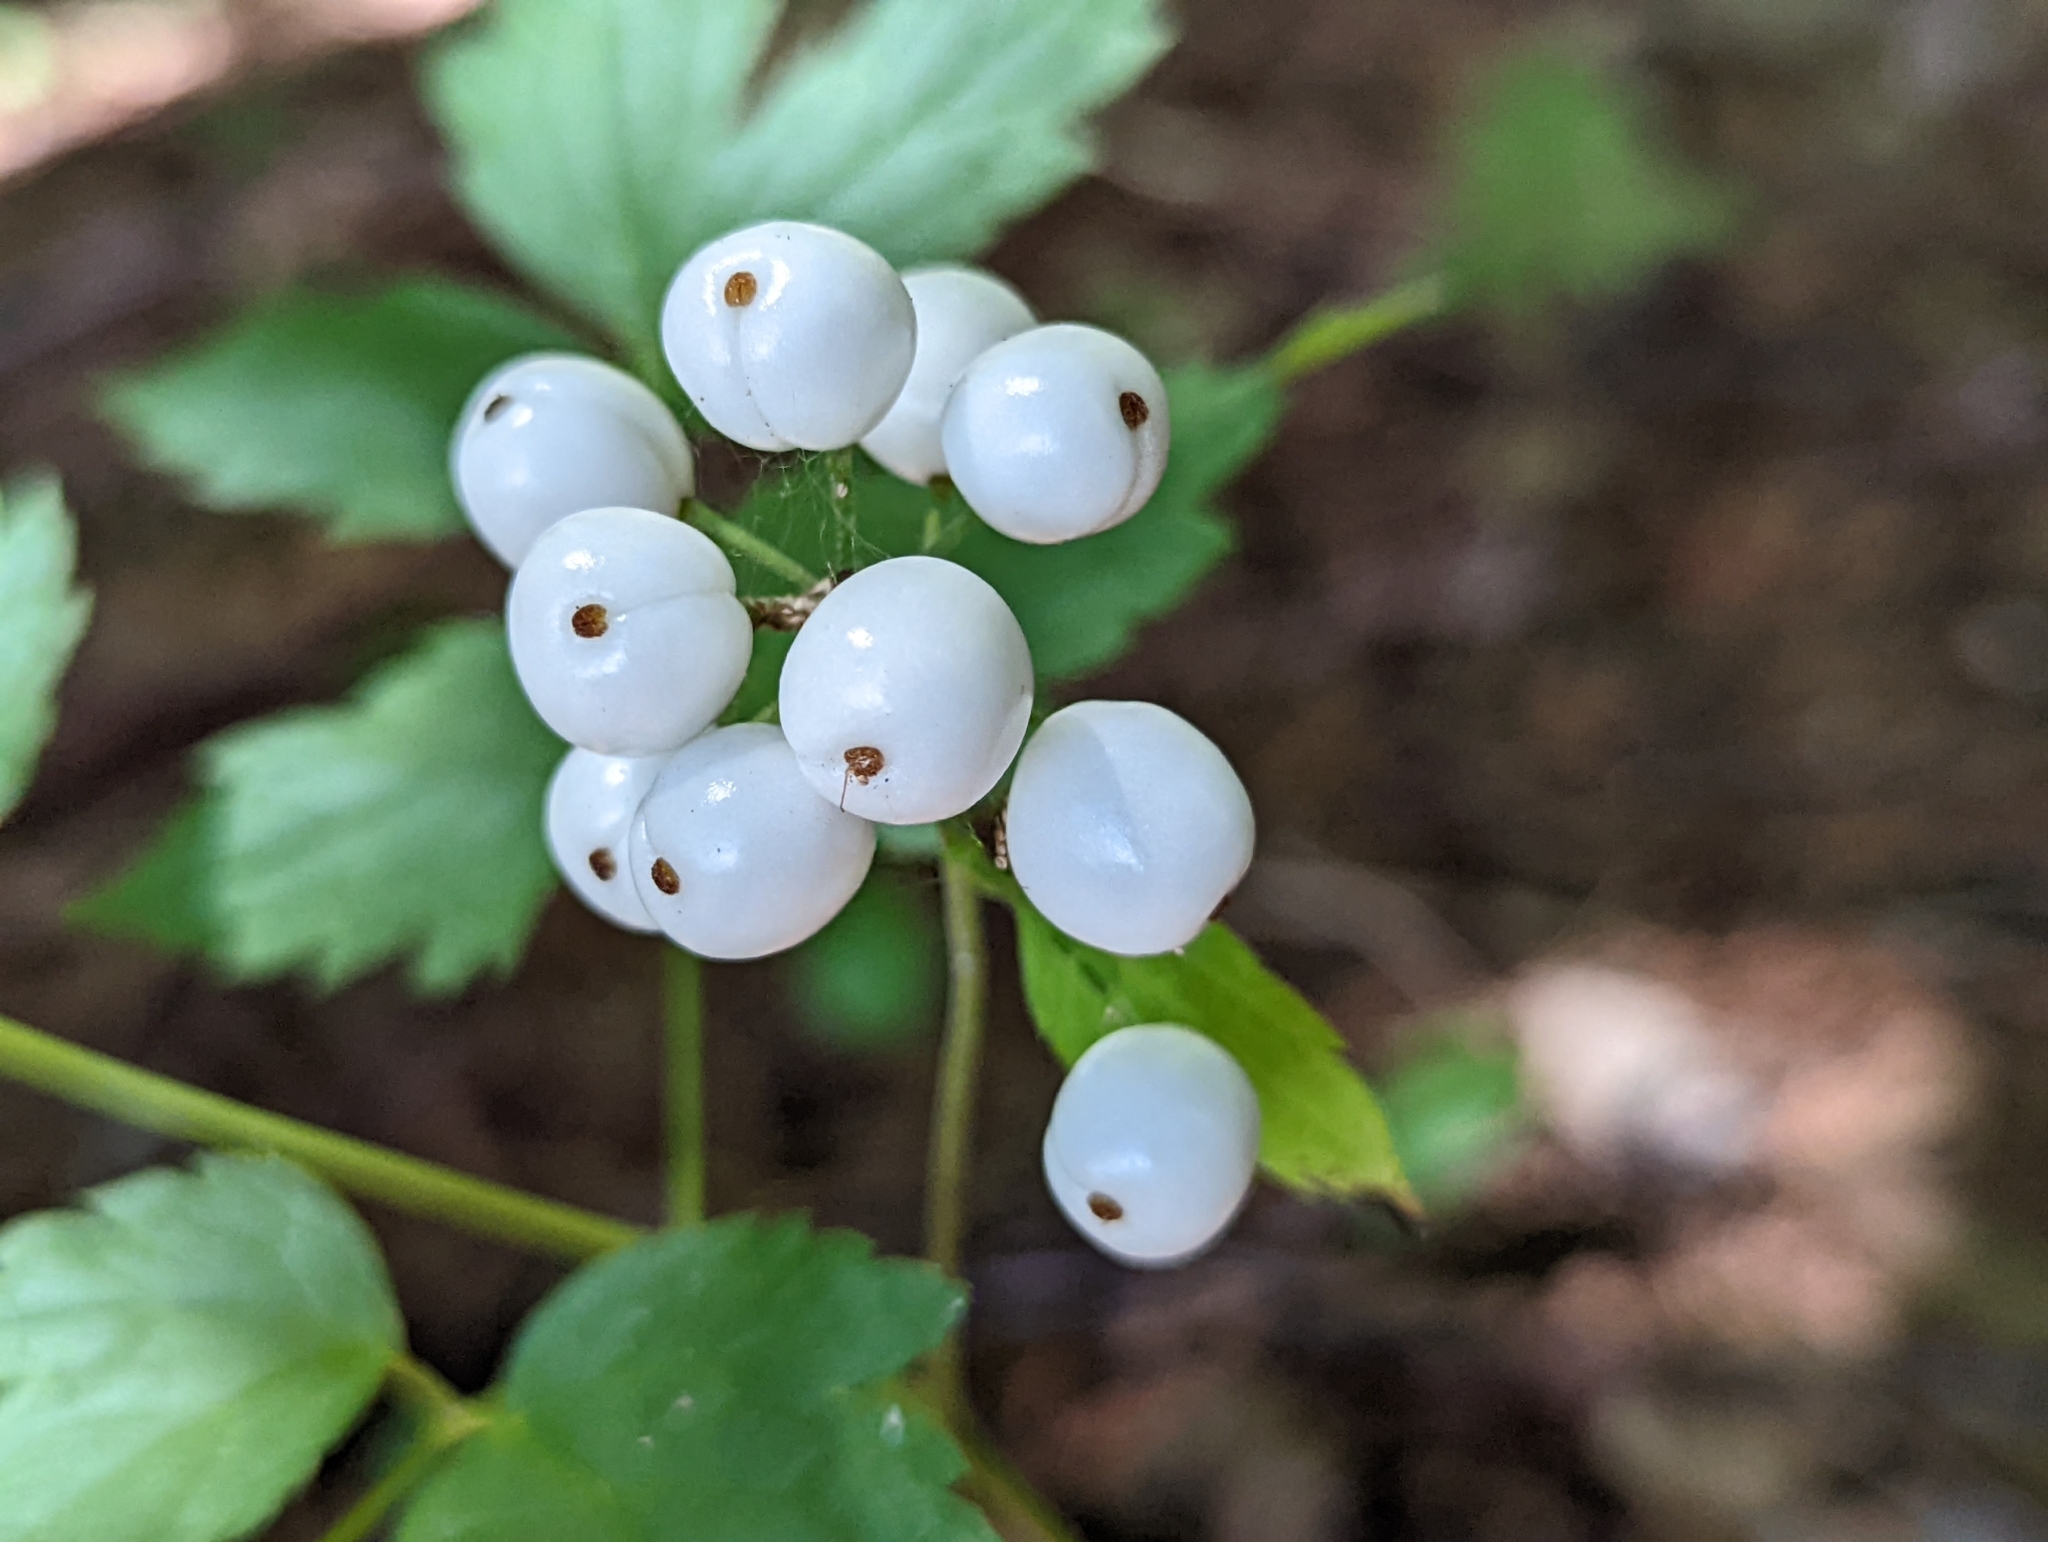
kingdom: Plantae
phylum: Tracheophyta
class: Magnoliopsida
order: Ranunculales
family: Ranunculaceae
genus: Actaea
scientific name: Actaea rubra
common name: Red baneberry
